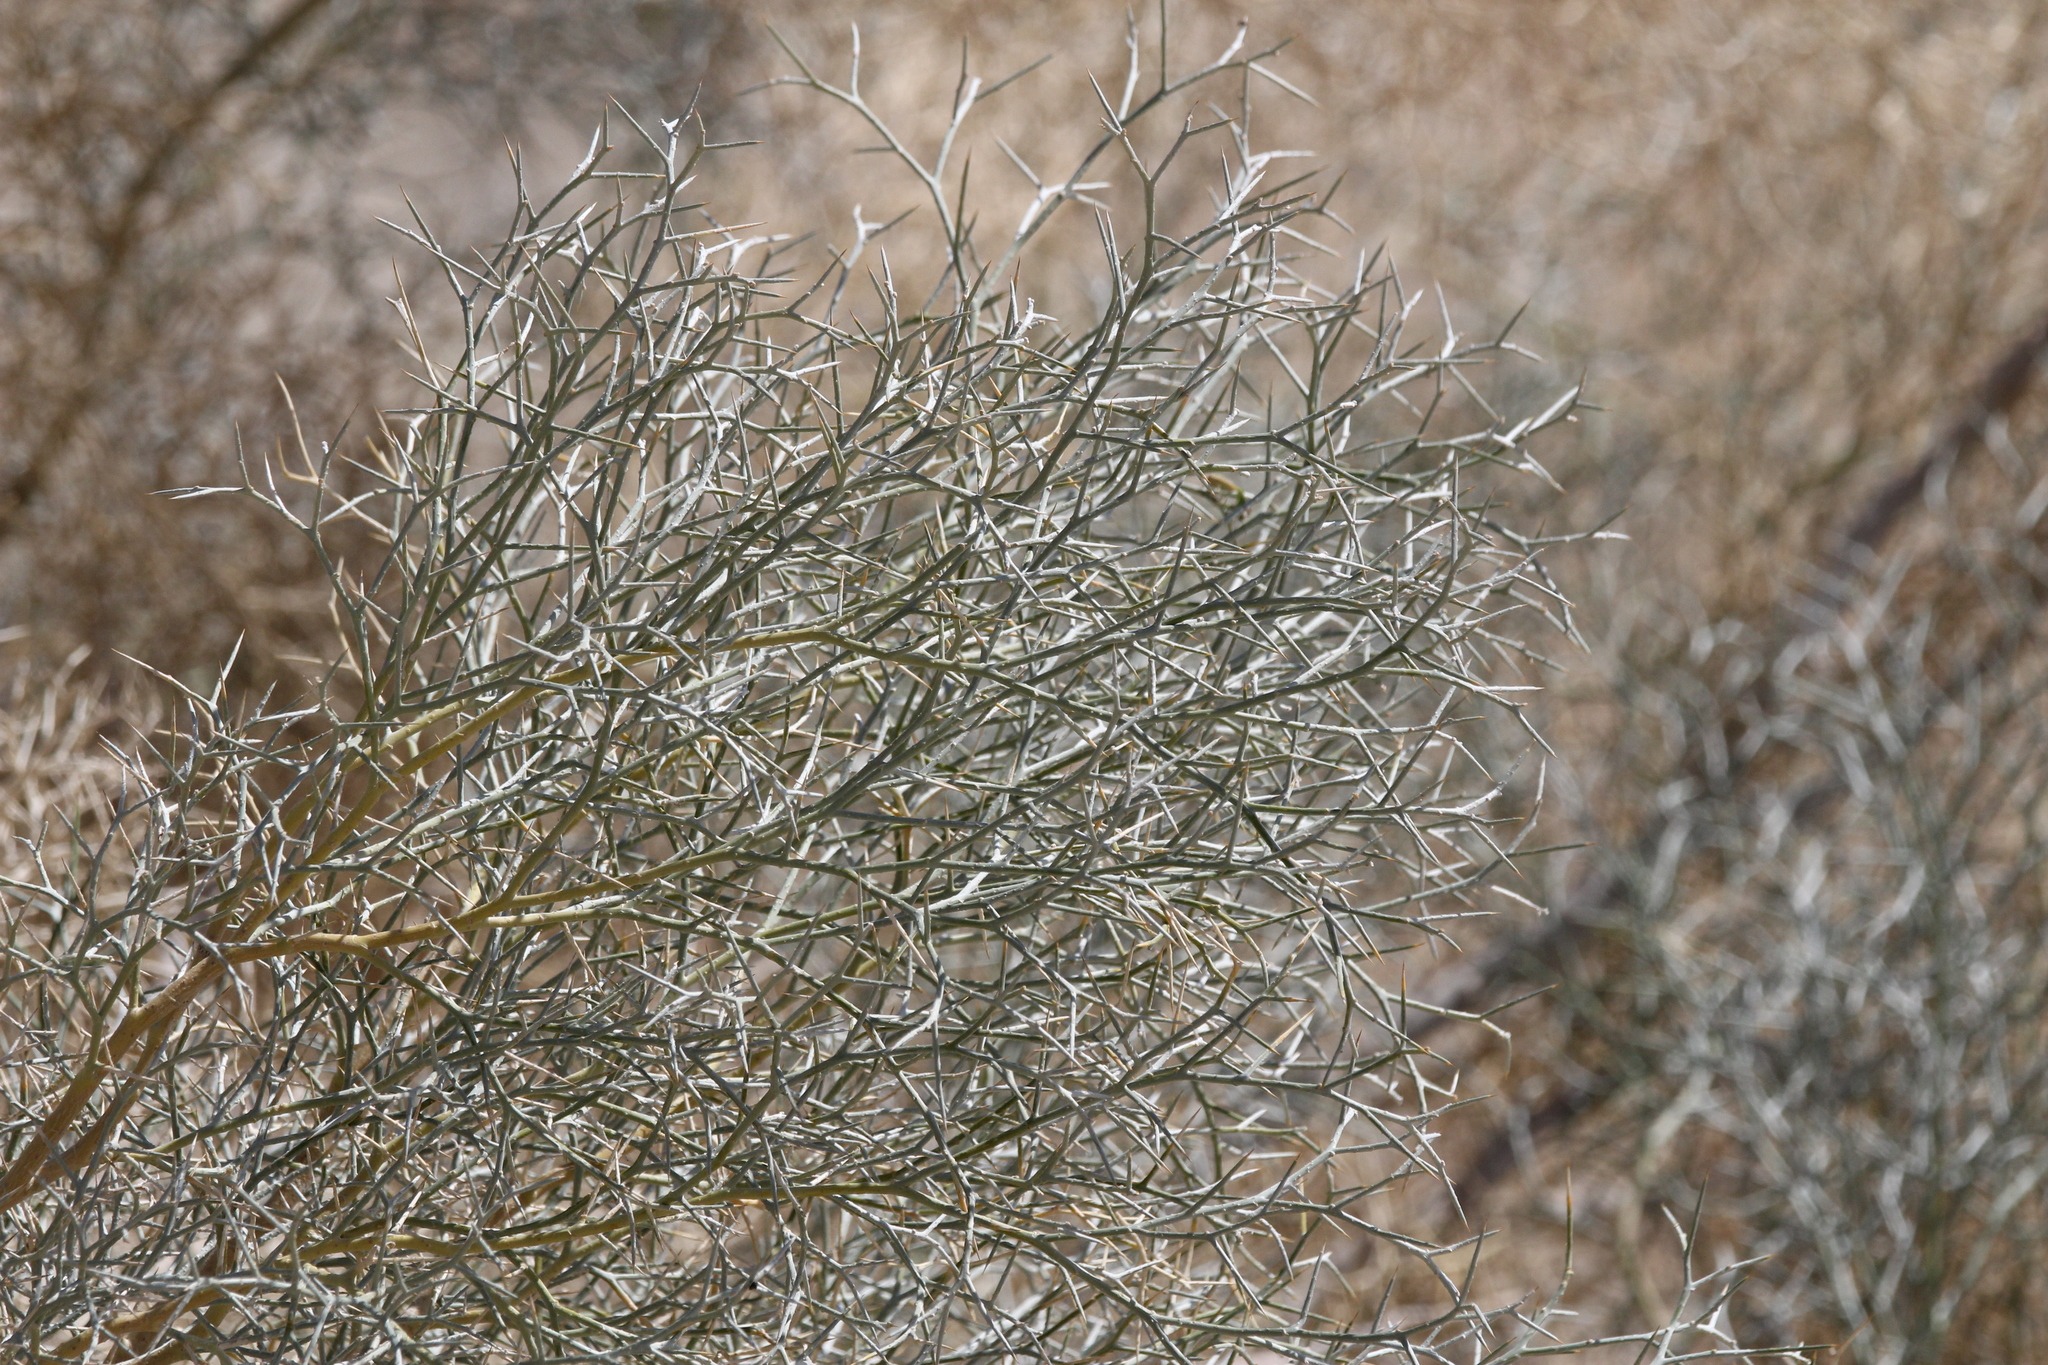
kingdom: Plantae
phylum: Tracheophyta
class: Magnoliopsida
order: Fabales
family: Fabaceae
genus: Psorothamnus
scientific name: Psorothamnus spinosus
